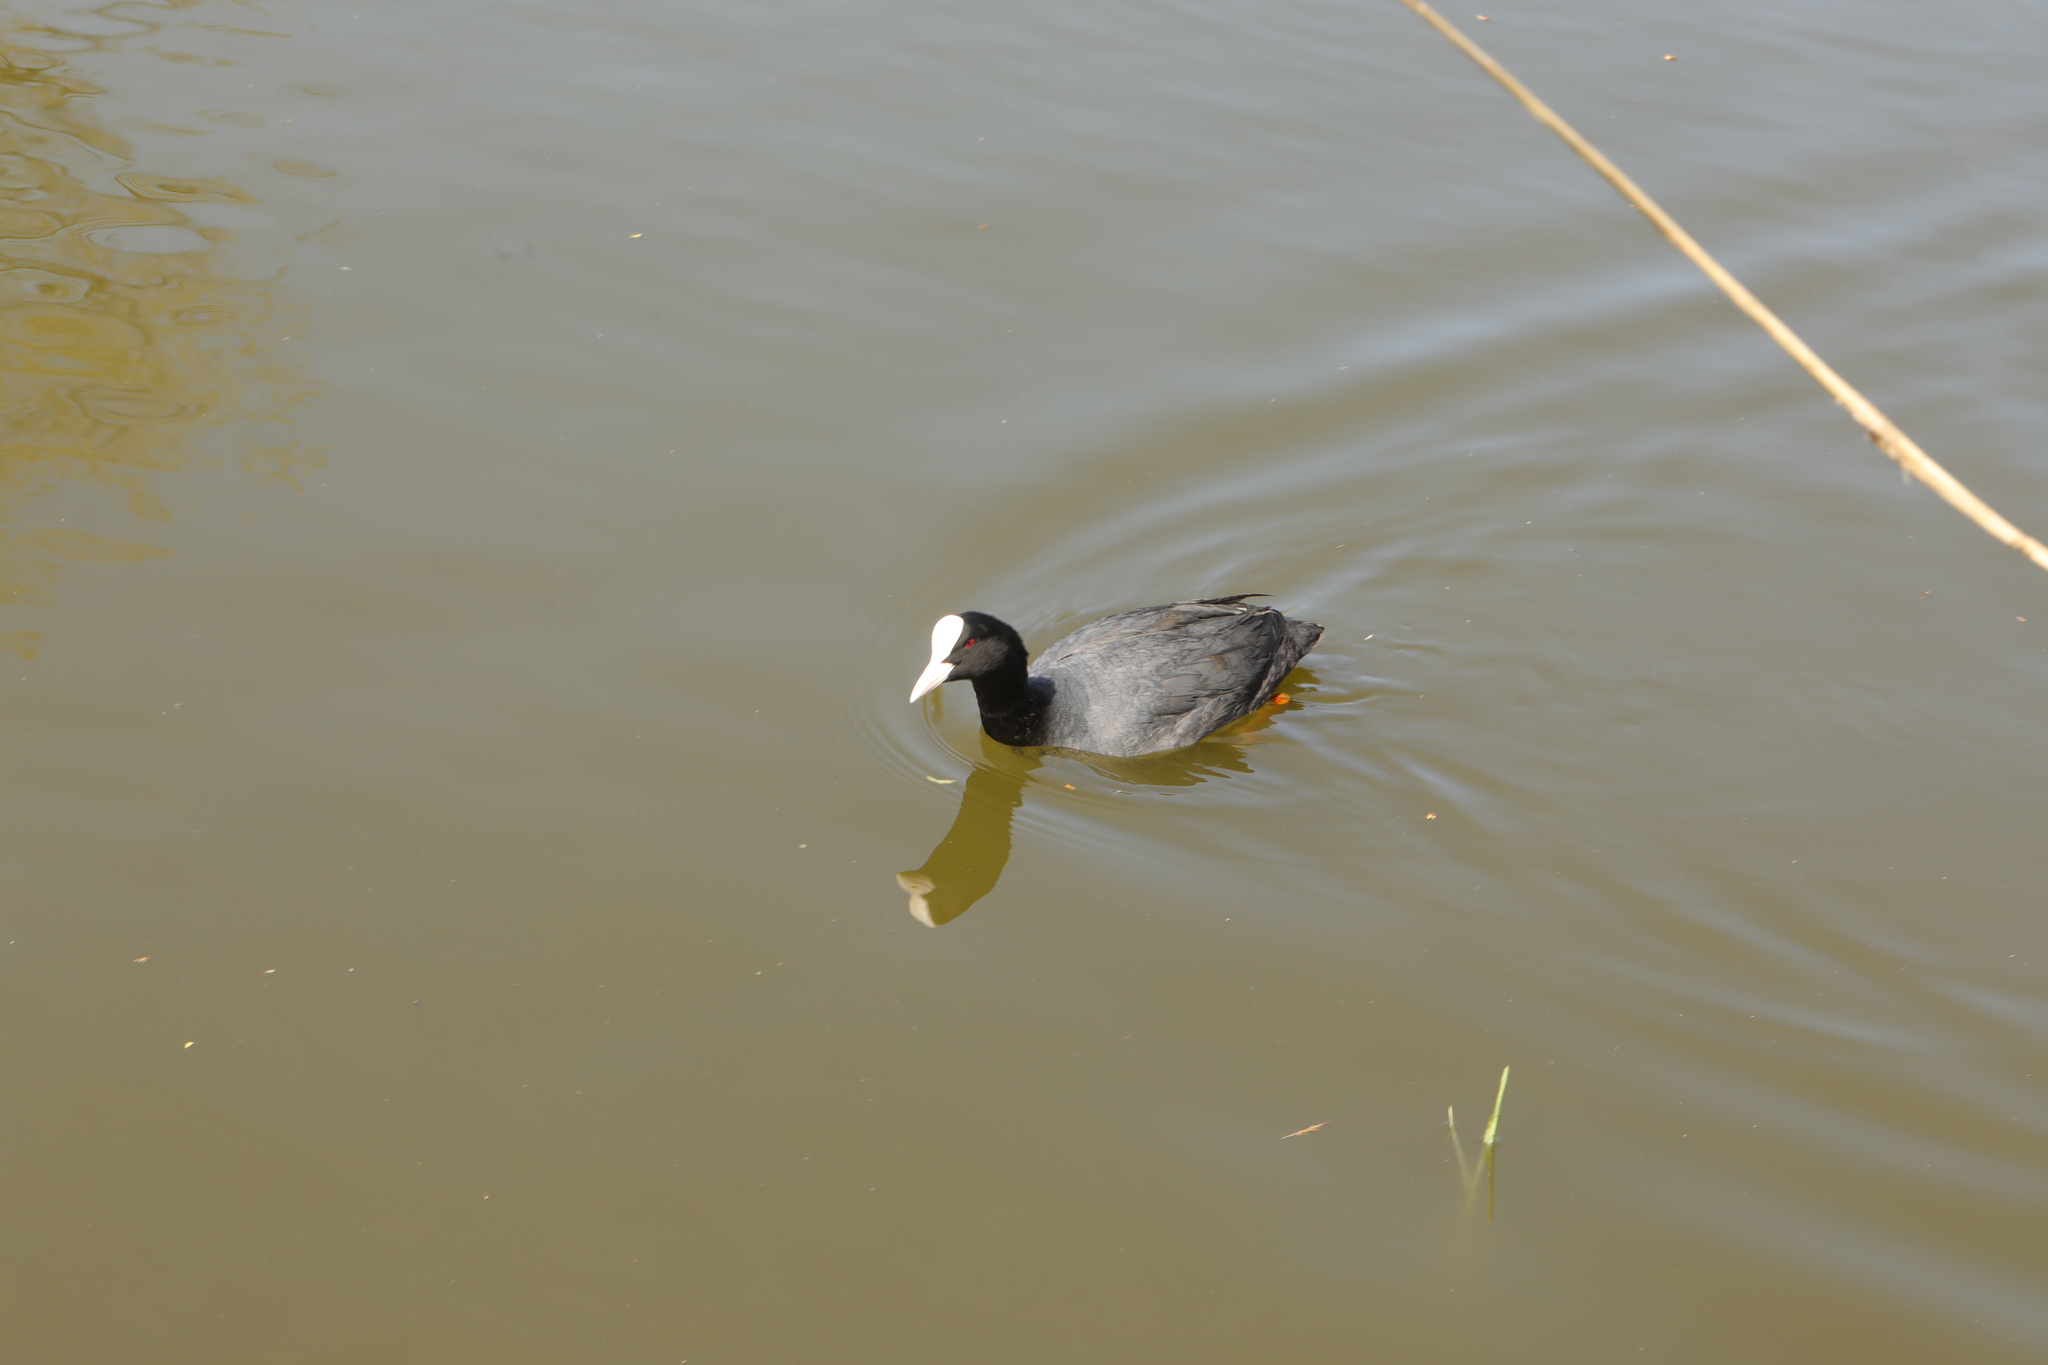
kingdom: Animalia
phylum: Chordata
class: Aves
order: Gruiformes
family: Rallidae
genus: Fulica
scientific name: Fulica atra
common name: Eurasian coot
